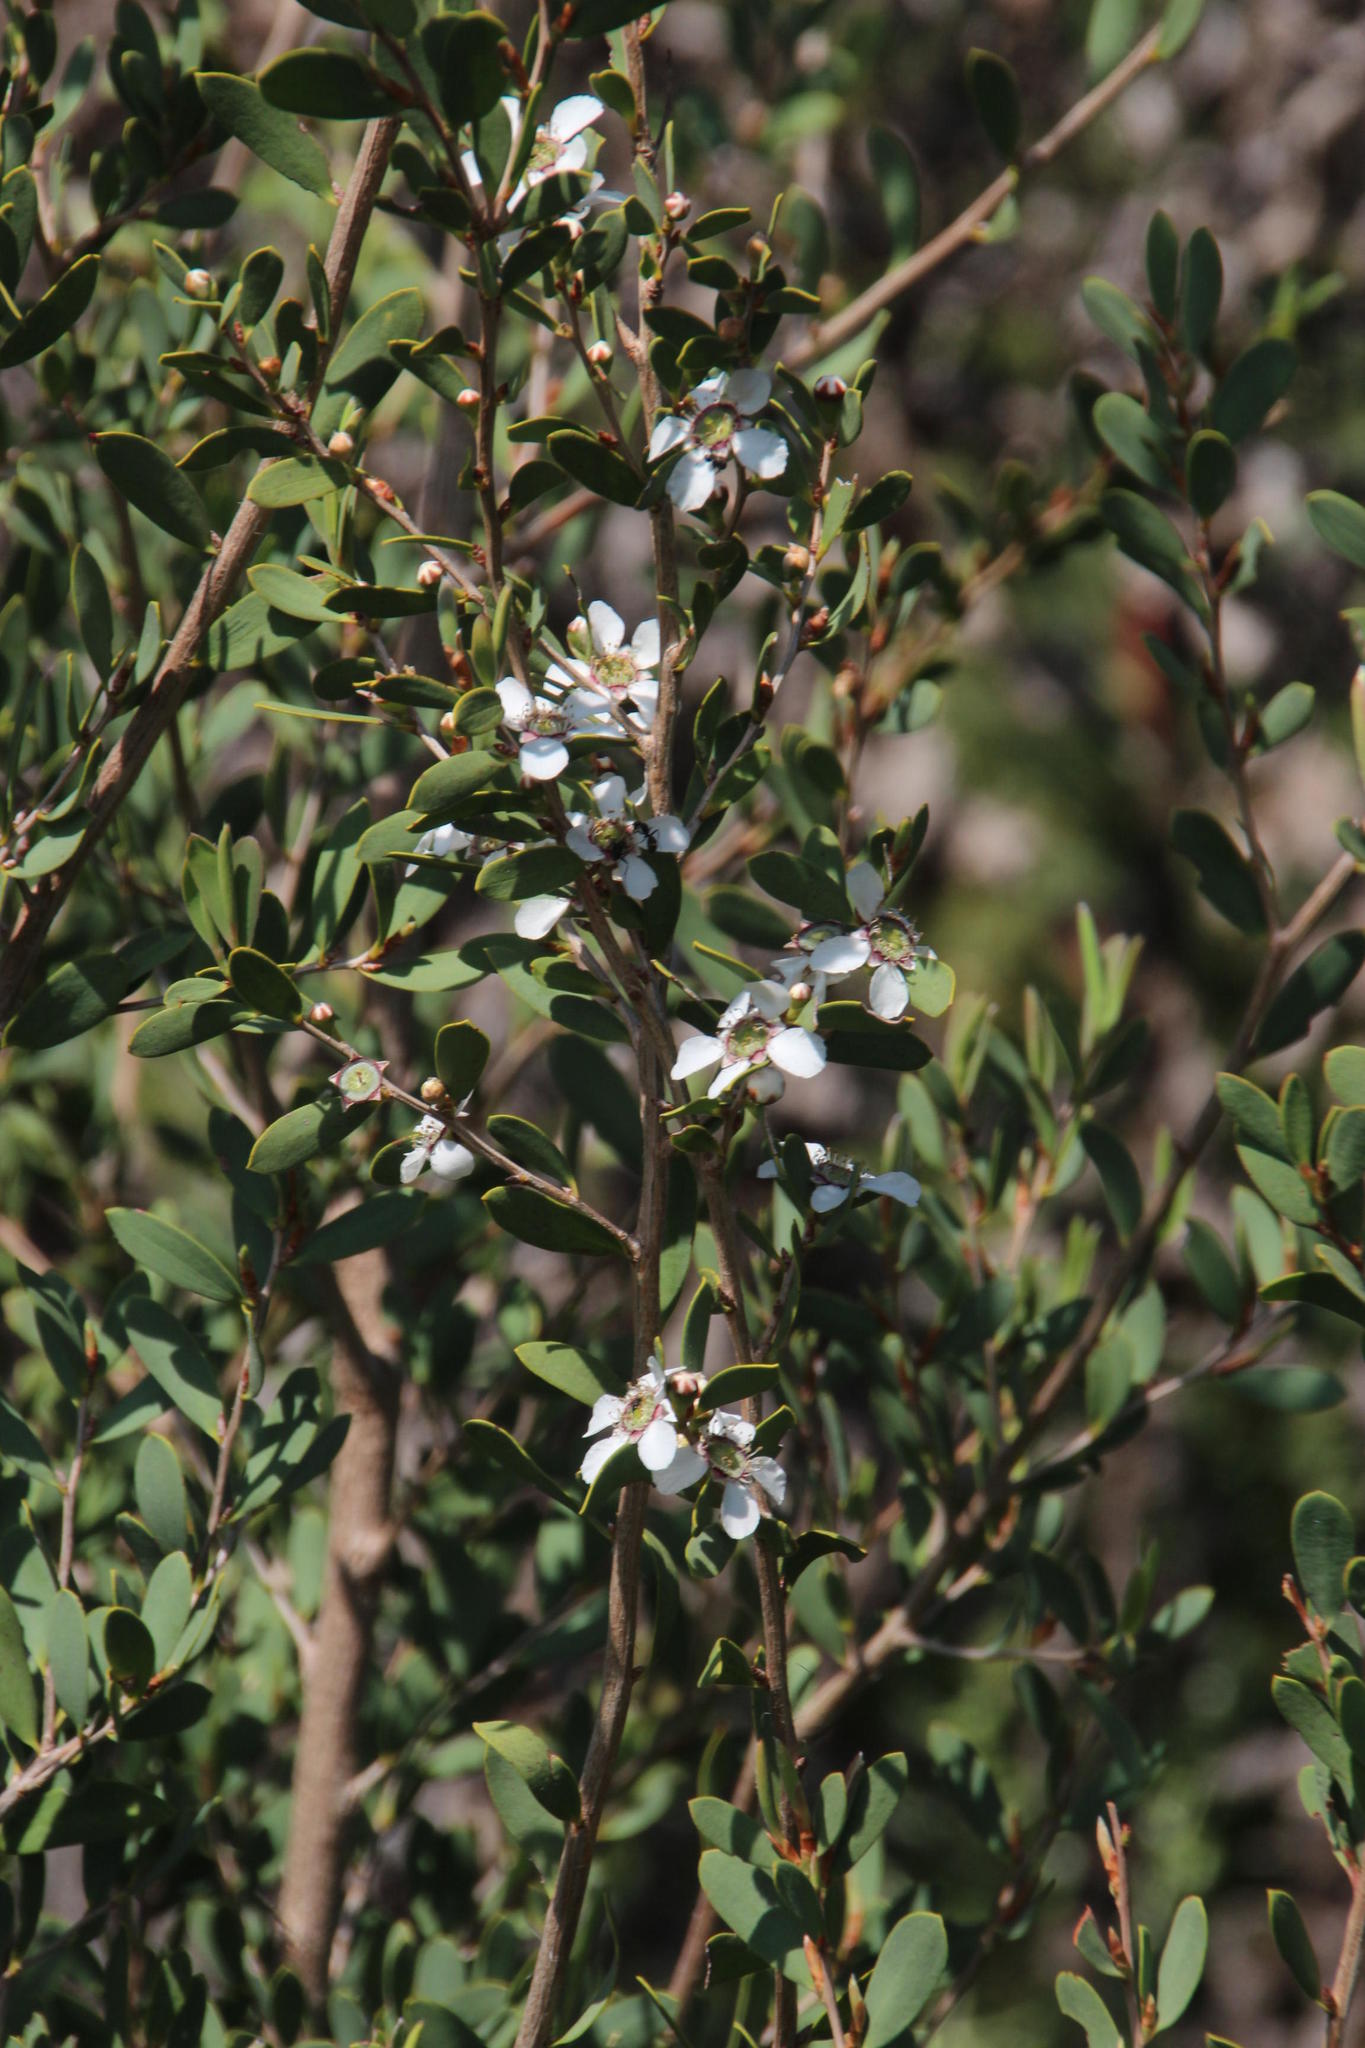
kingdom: Plantae
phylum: Tracheophyta
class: Magnoliopsida
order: Myrtales
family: Myrtaceae
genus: Leptospermum
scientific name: Leptospermum laevigatum
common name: Australian teatree
